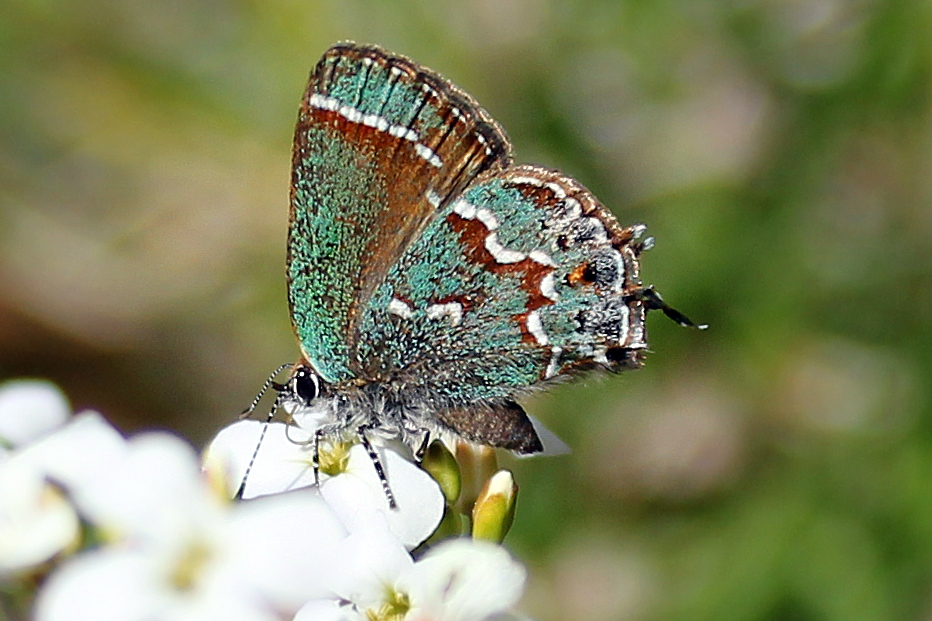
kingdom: Animalia
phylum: Arthropoda
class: Insecta
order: Lepidoptera
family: Lycaenidae
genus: Mitoura
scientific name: Mitoura gryneus
